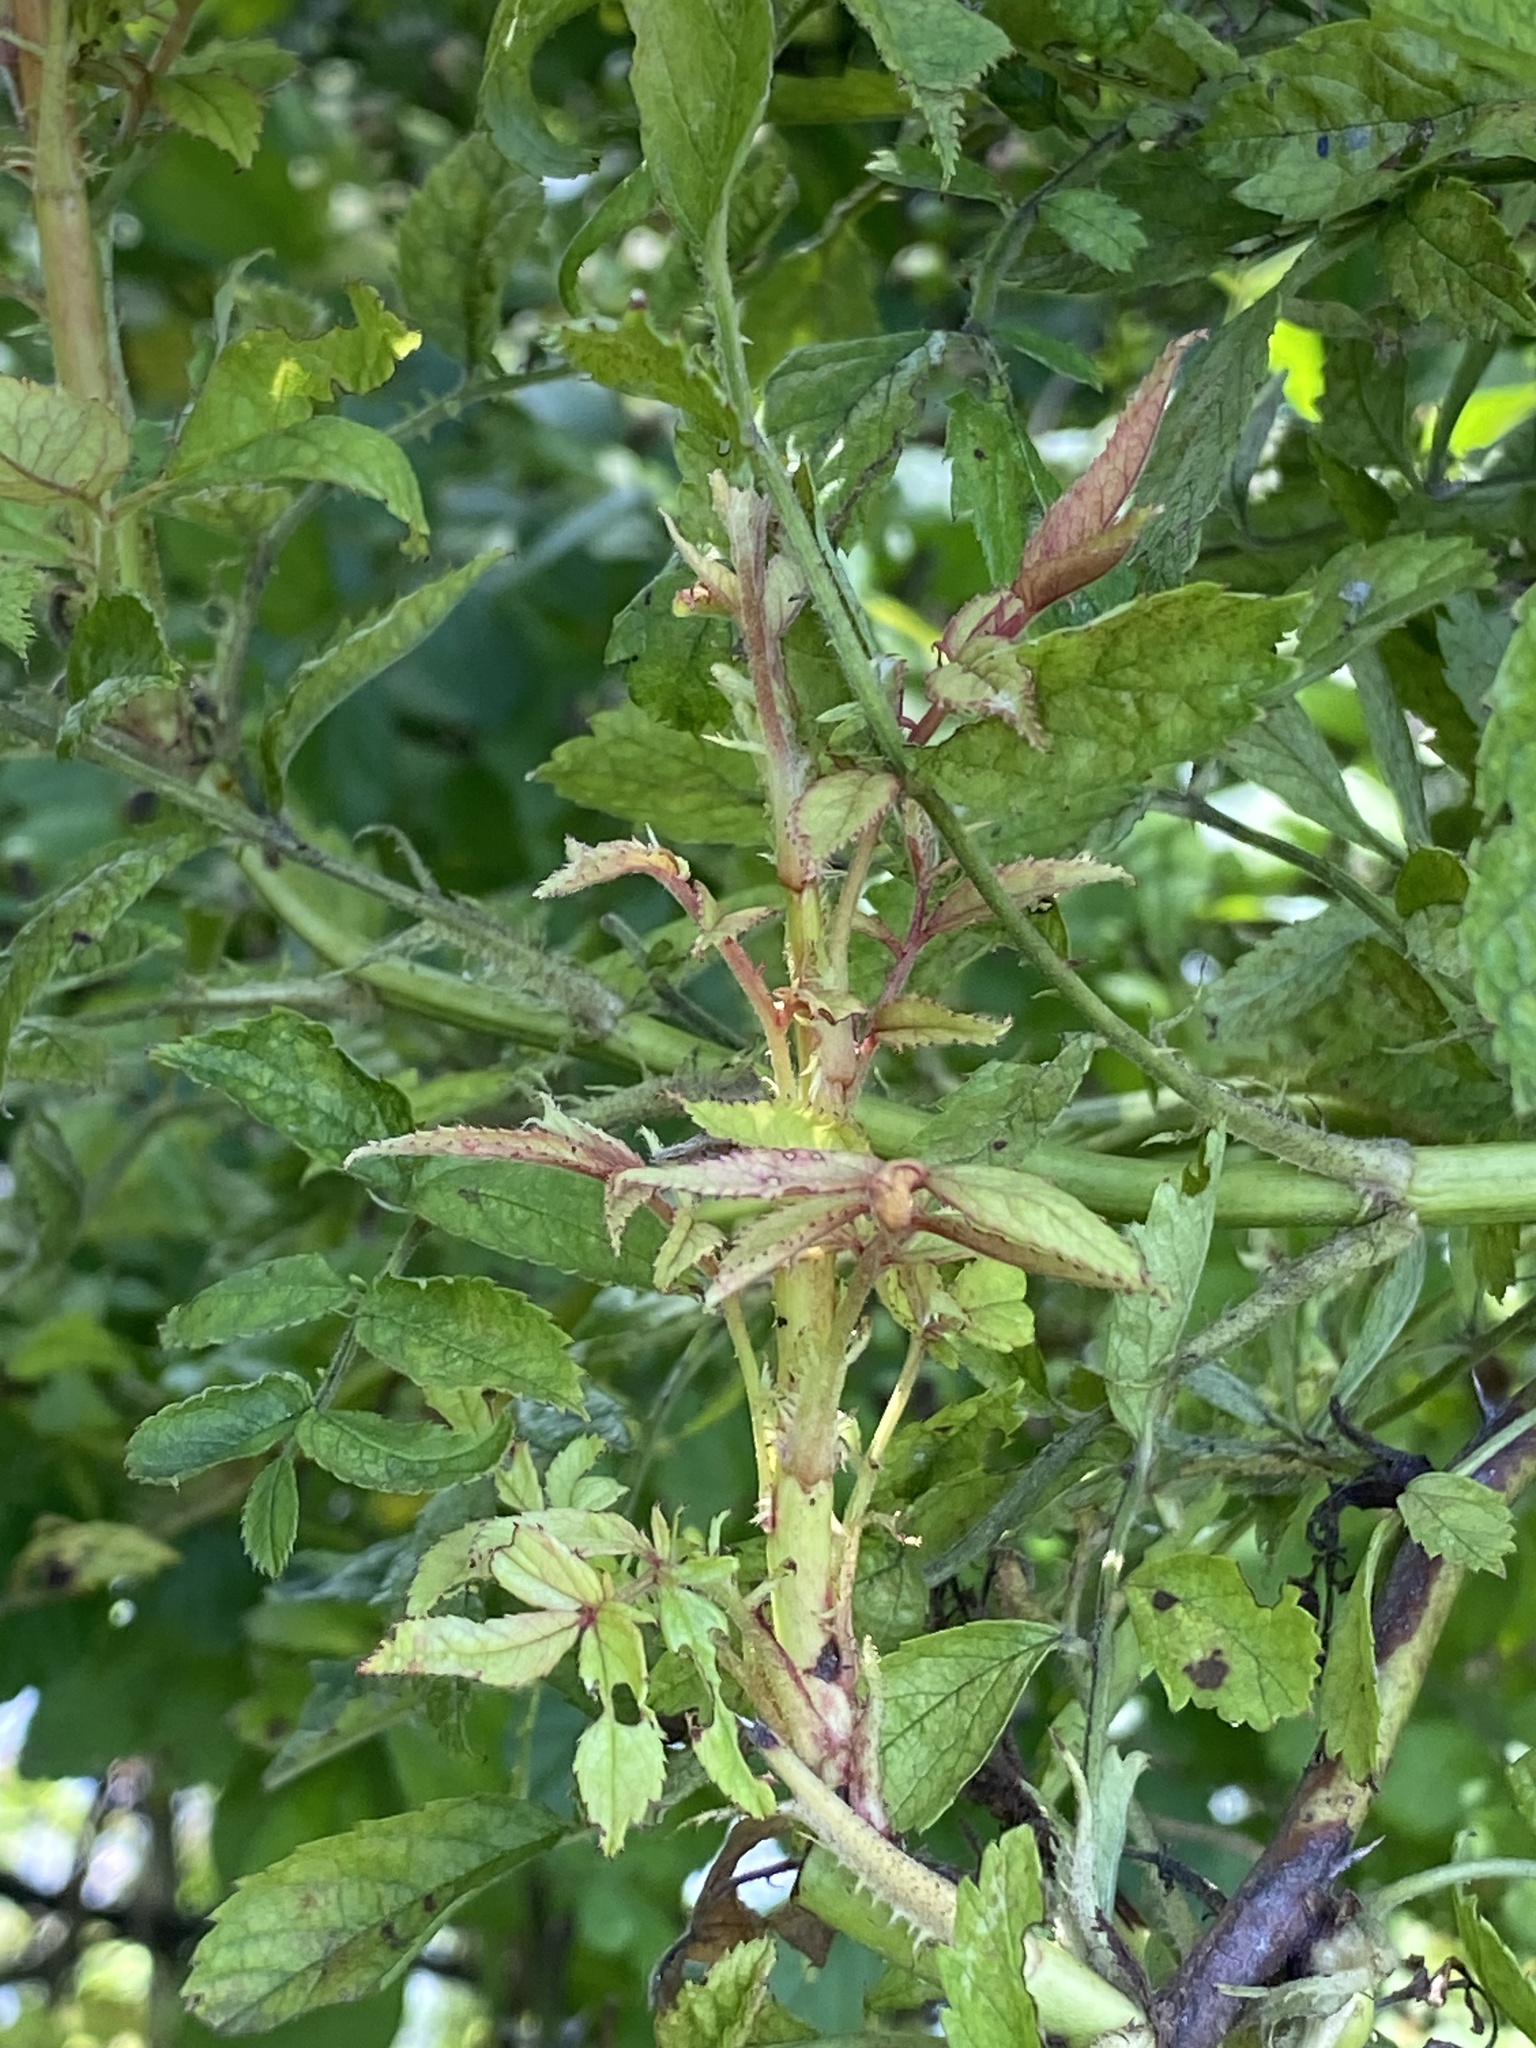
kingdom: Viruses
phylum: Negarnaviricota
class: Ellioviricetes
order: Bunyavirales
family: Fimoviridae
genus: Emaravirus
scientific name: Emaravirus rosae
